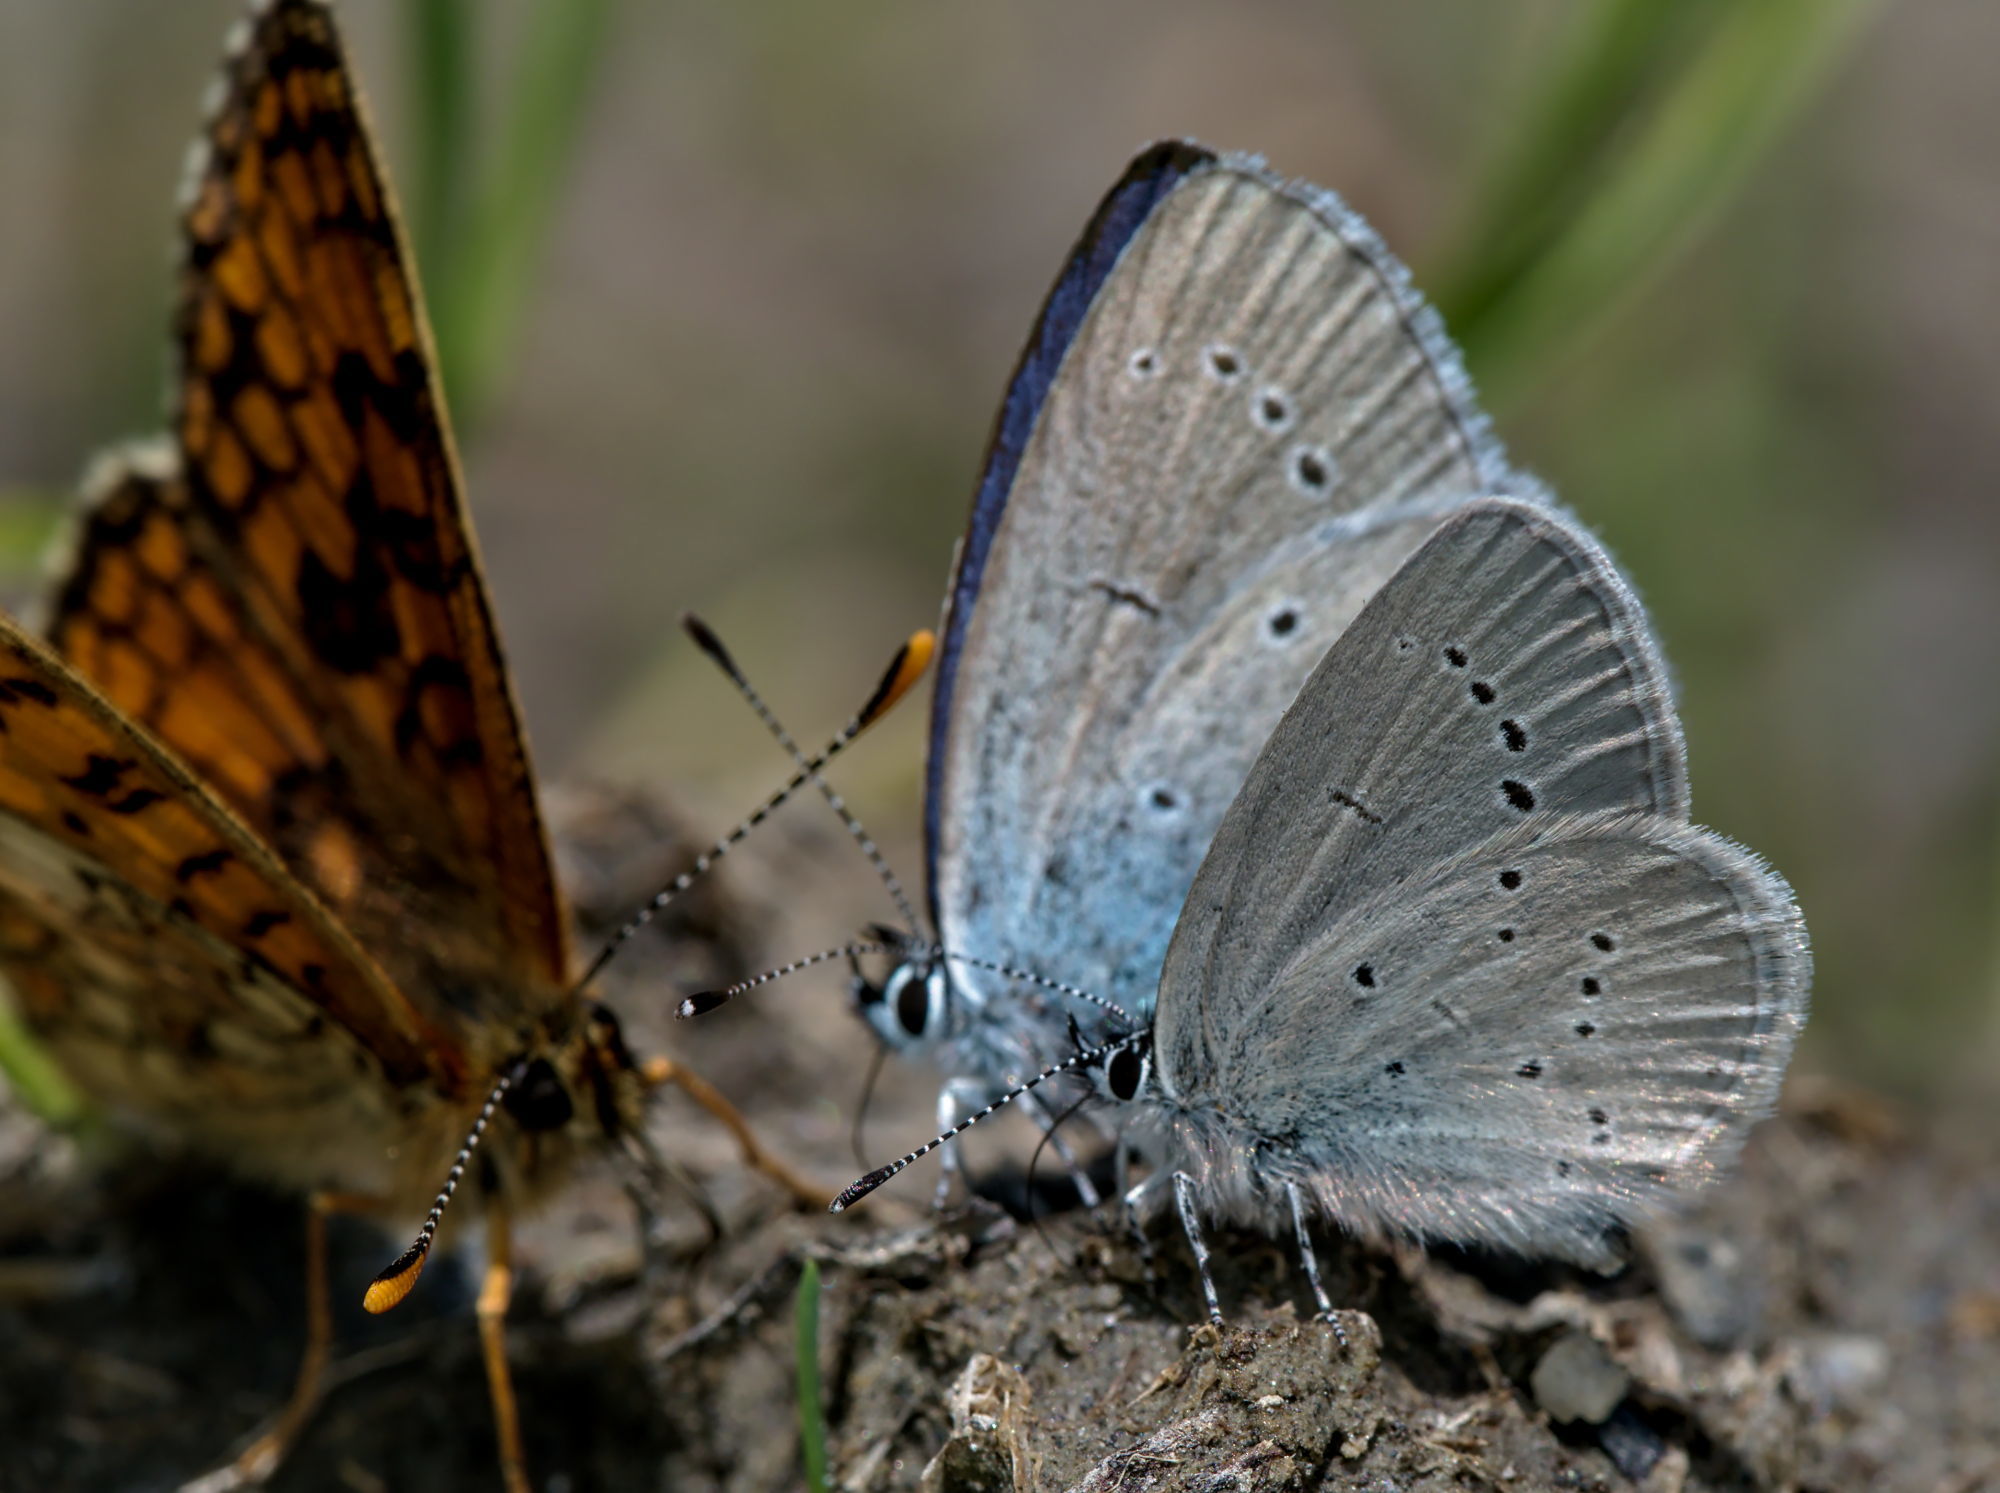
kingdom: Animalia
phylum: Arthropoda
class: Insecta
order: Lepidoptera
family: Lycaenidae
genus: Cupido
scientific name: Cupido minimus
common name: Small blue
